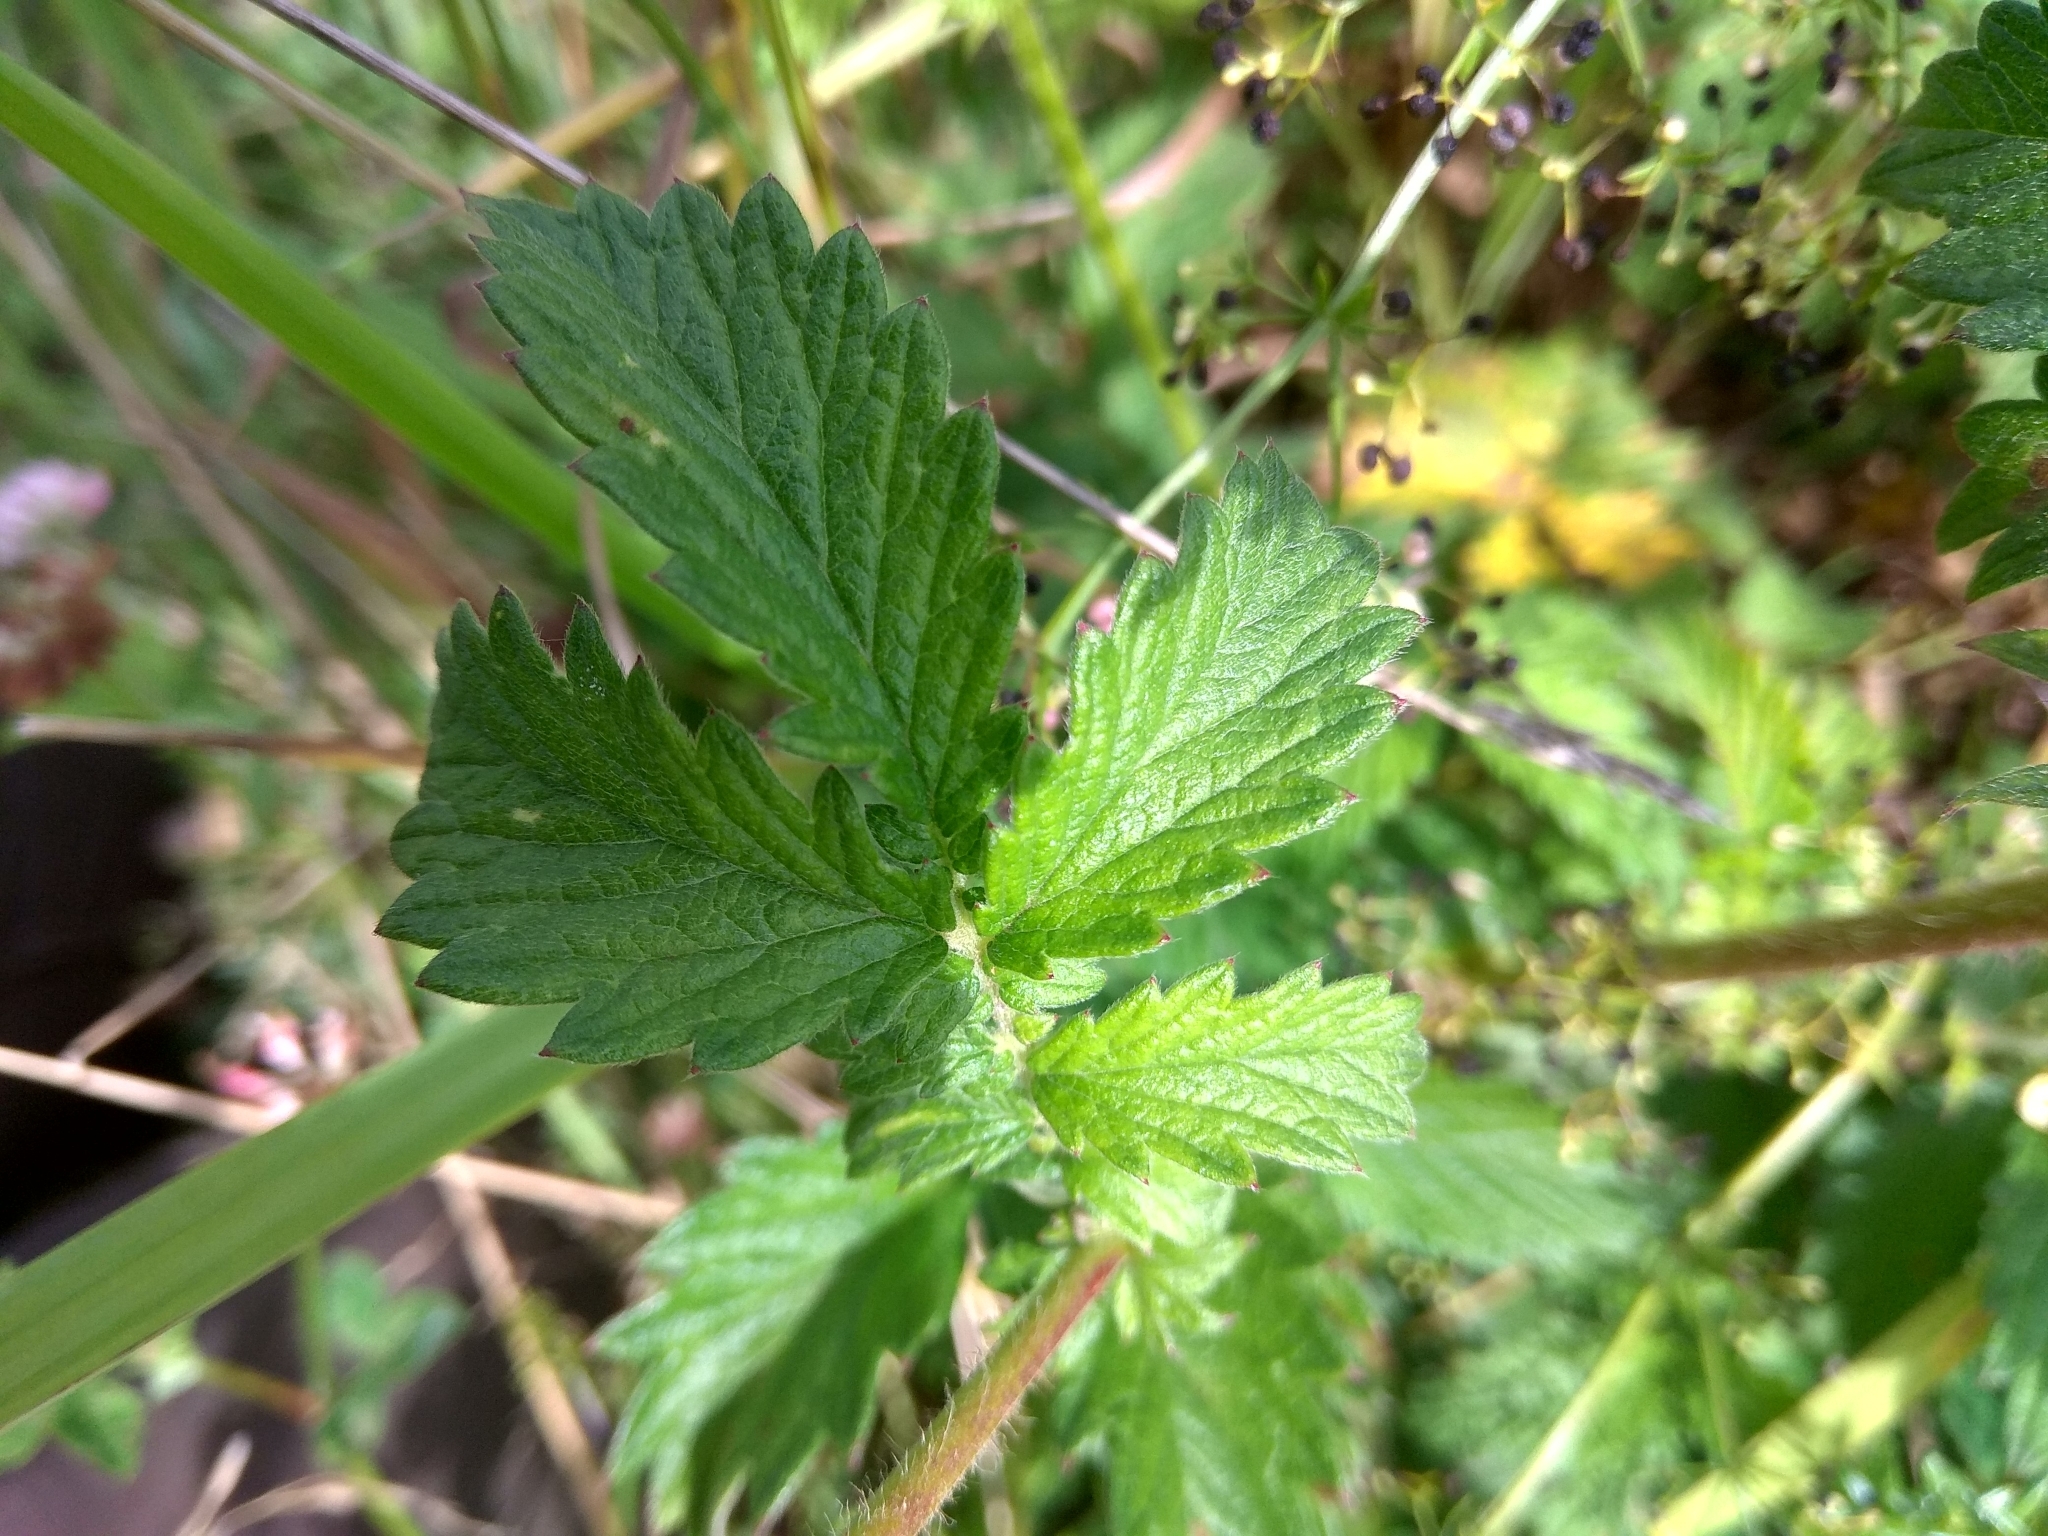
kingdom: Plantae
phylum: Tracheophyta
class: Magnoliopsida
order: Rosales
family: Rosaceae
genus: Agrimonia
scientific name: Agrimonia eupatoria
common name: Agrimony
